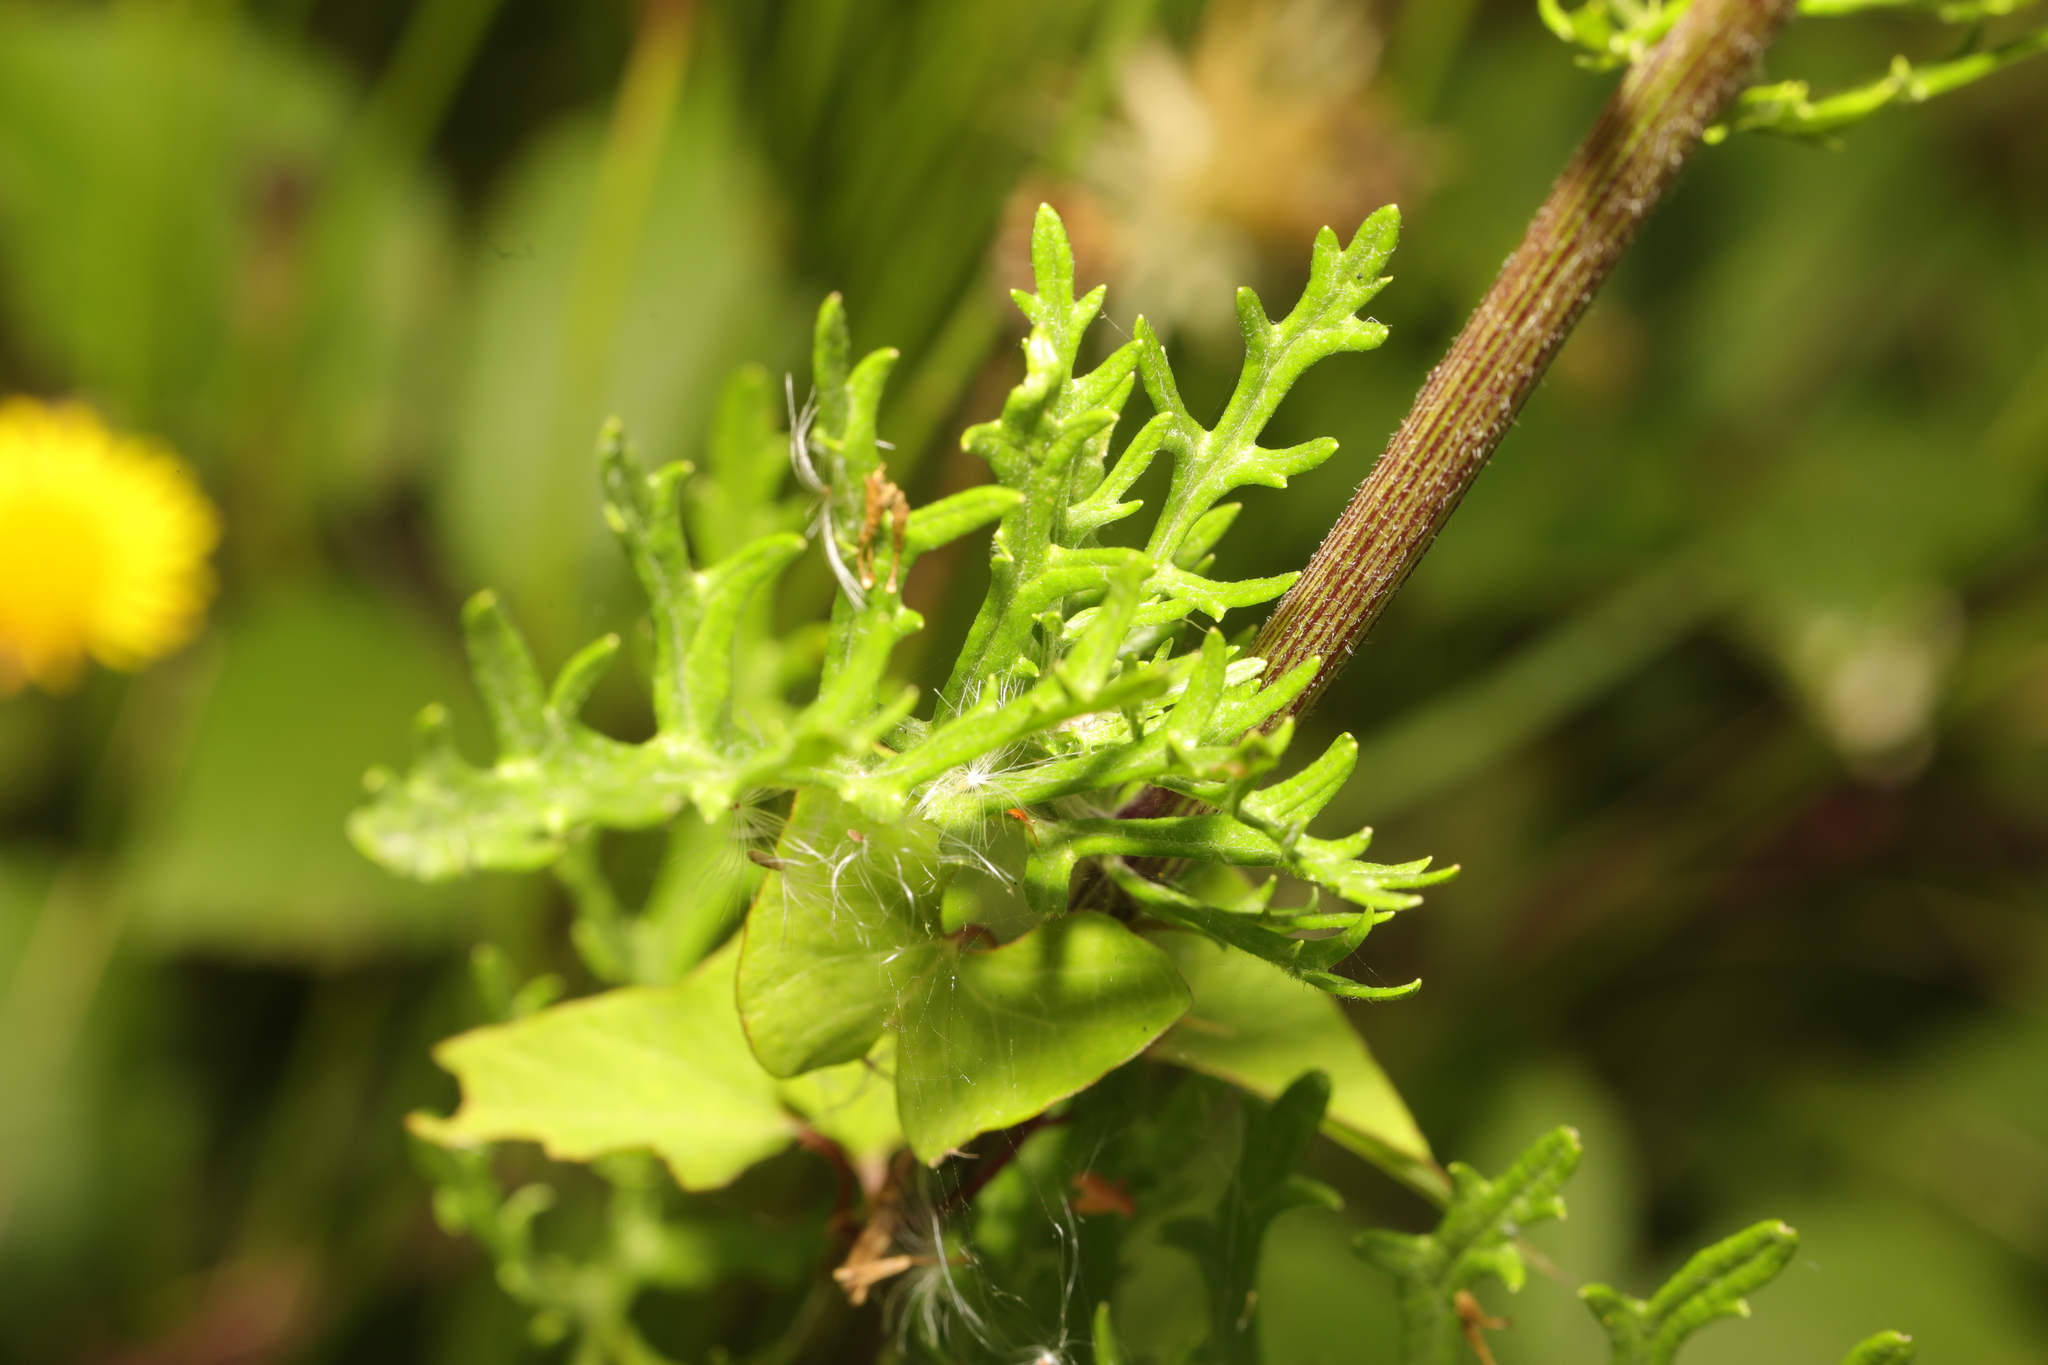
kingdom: Plantae
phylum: Tracheophyta
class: Magnoliopsida
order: Asterales
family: Asteraceae
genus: Jacobaea
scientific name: Jacobaea vulgaris
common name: Stinking willie
